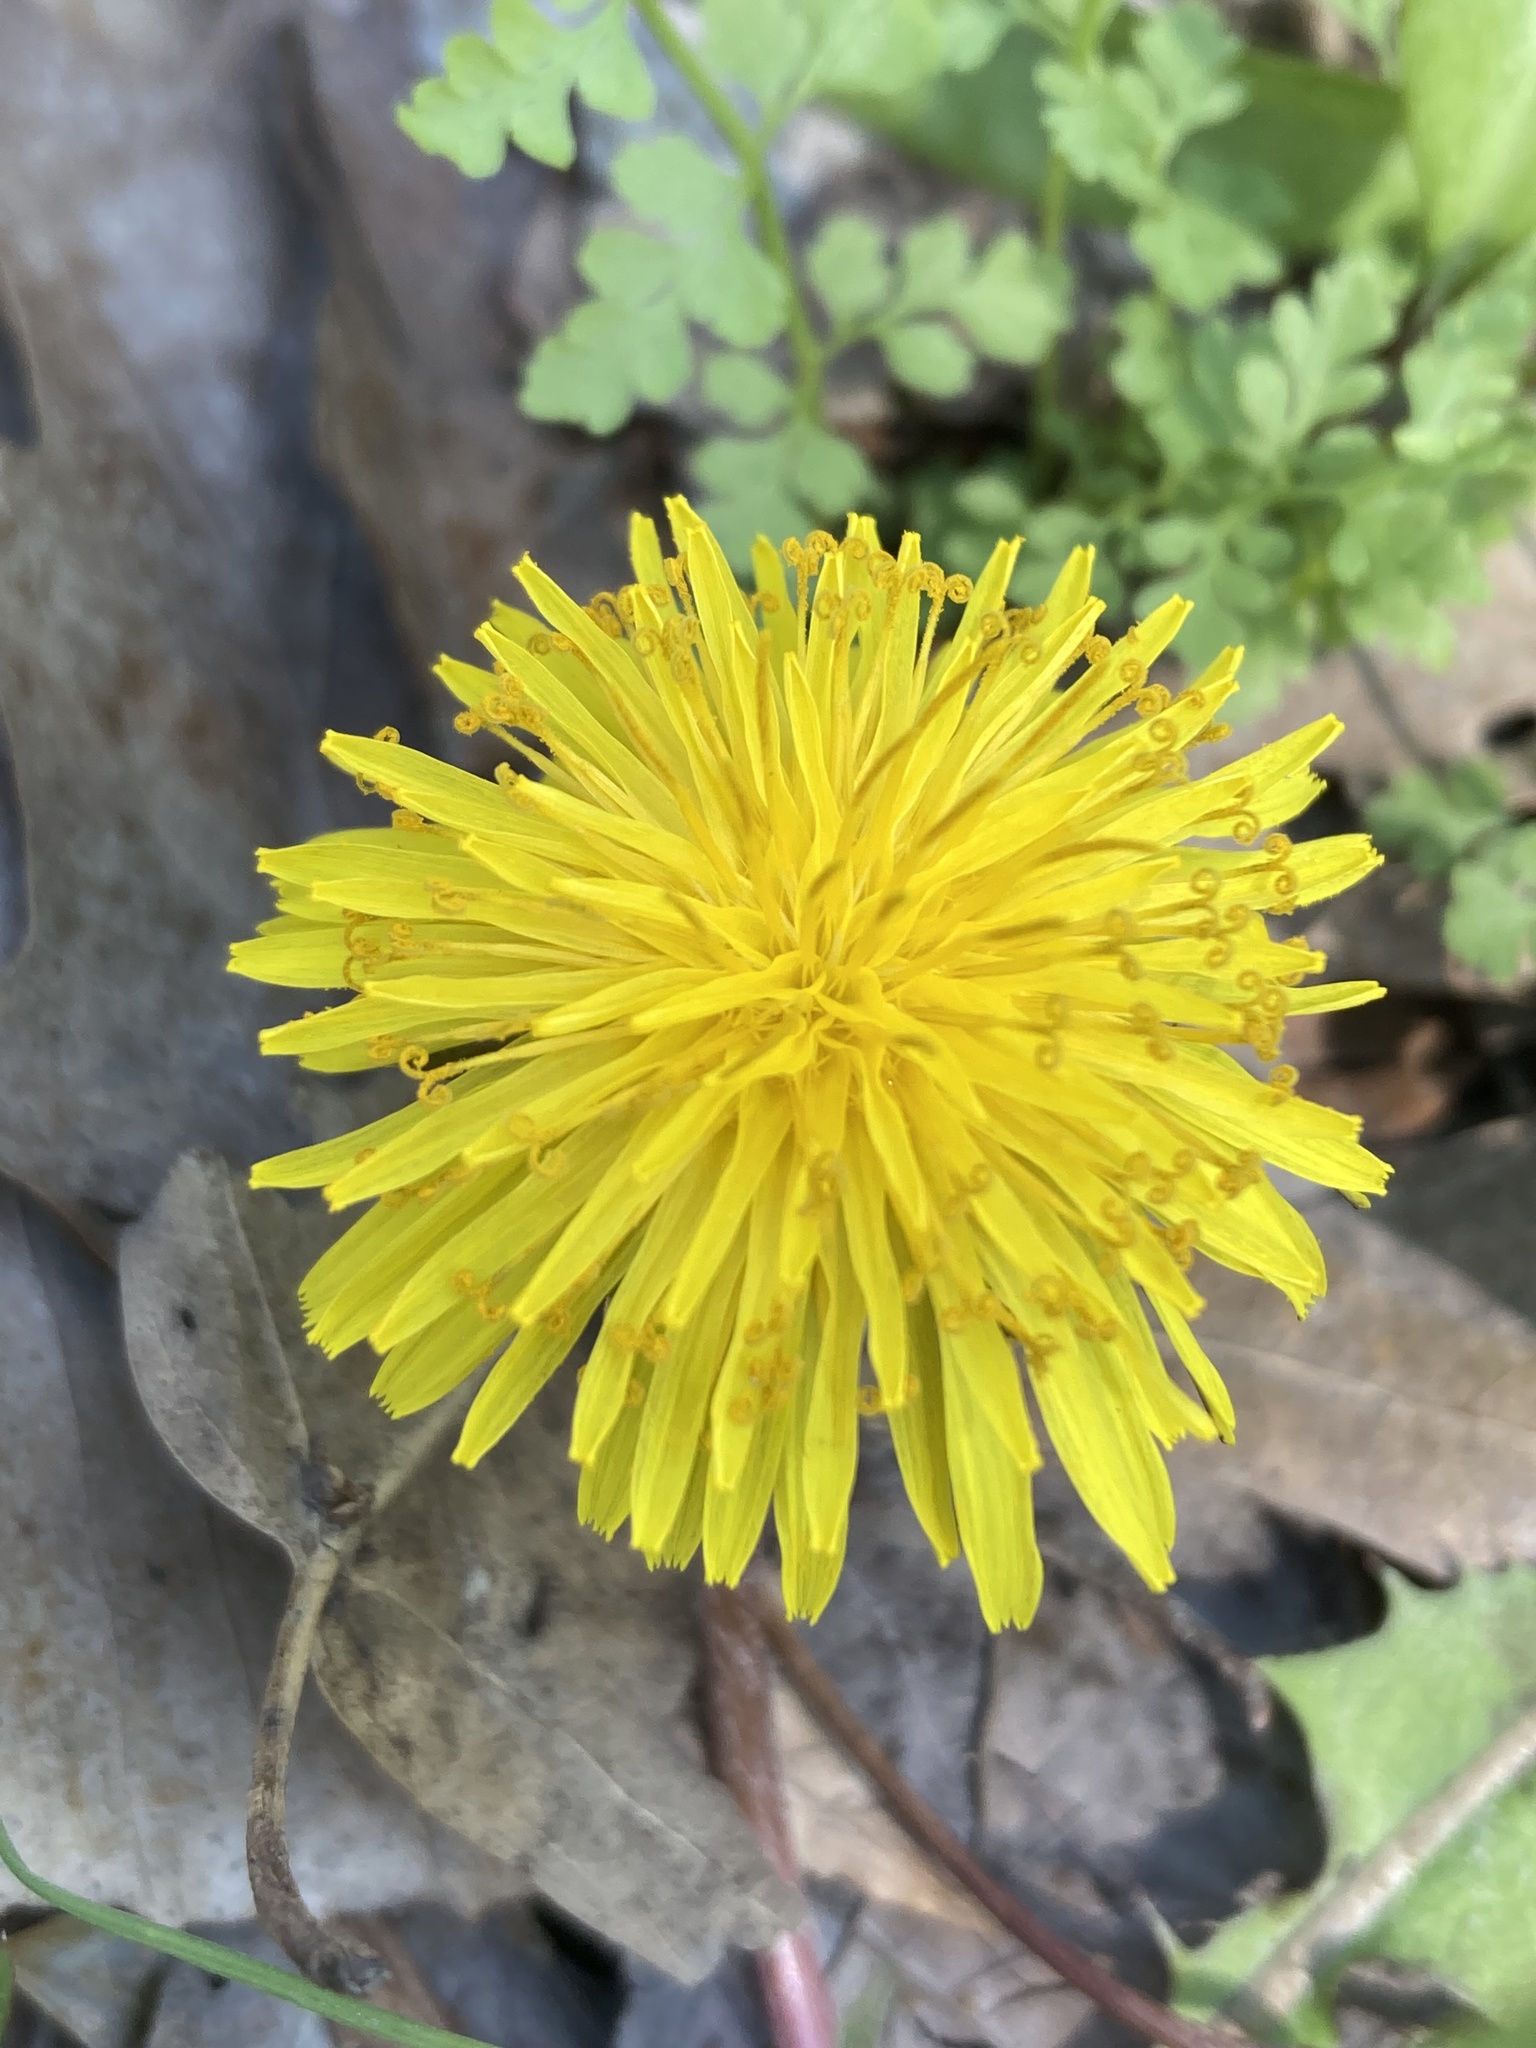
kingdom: Plantae
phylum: Tracheophyta
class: Magnoliopsida
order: Asterales
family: Asteraceae
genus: Taraxacum
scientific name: Taraxacum
